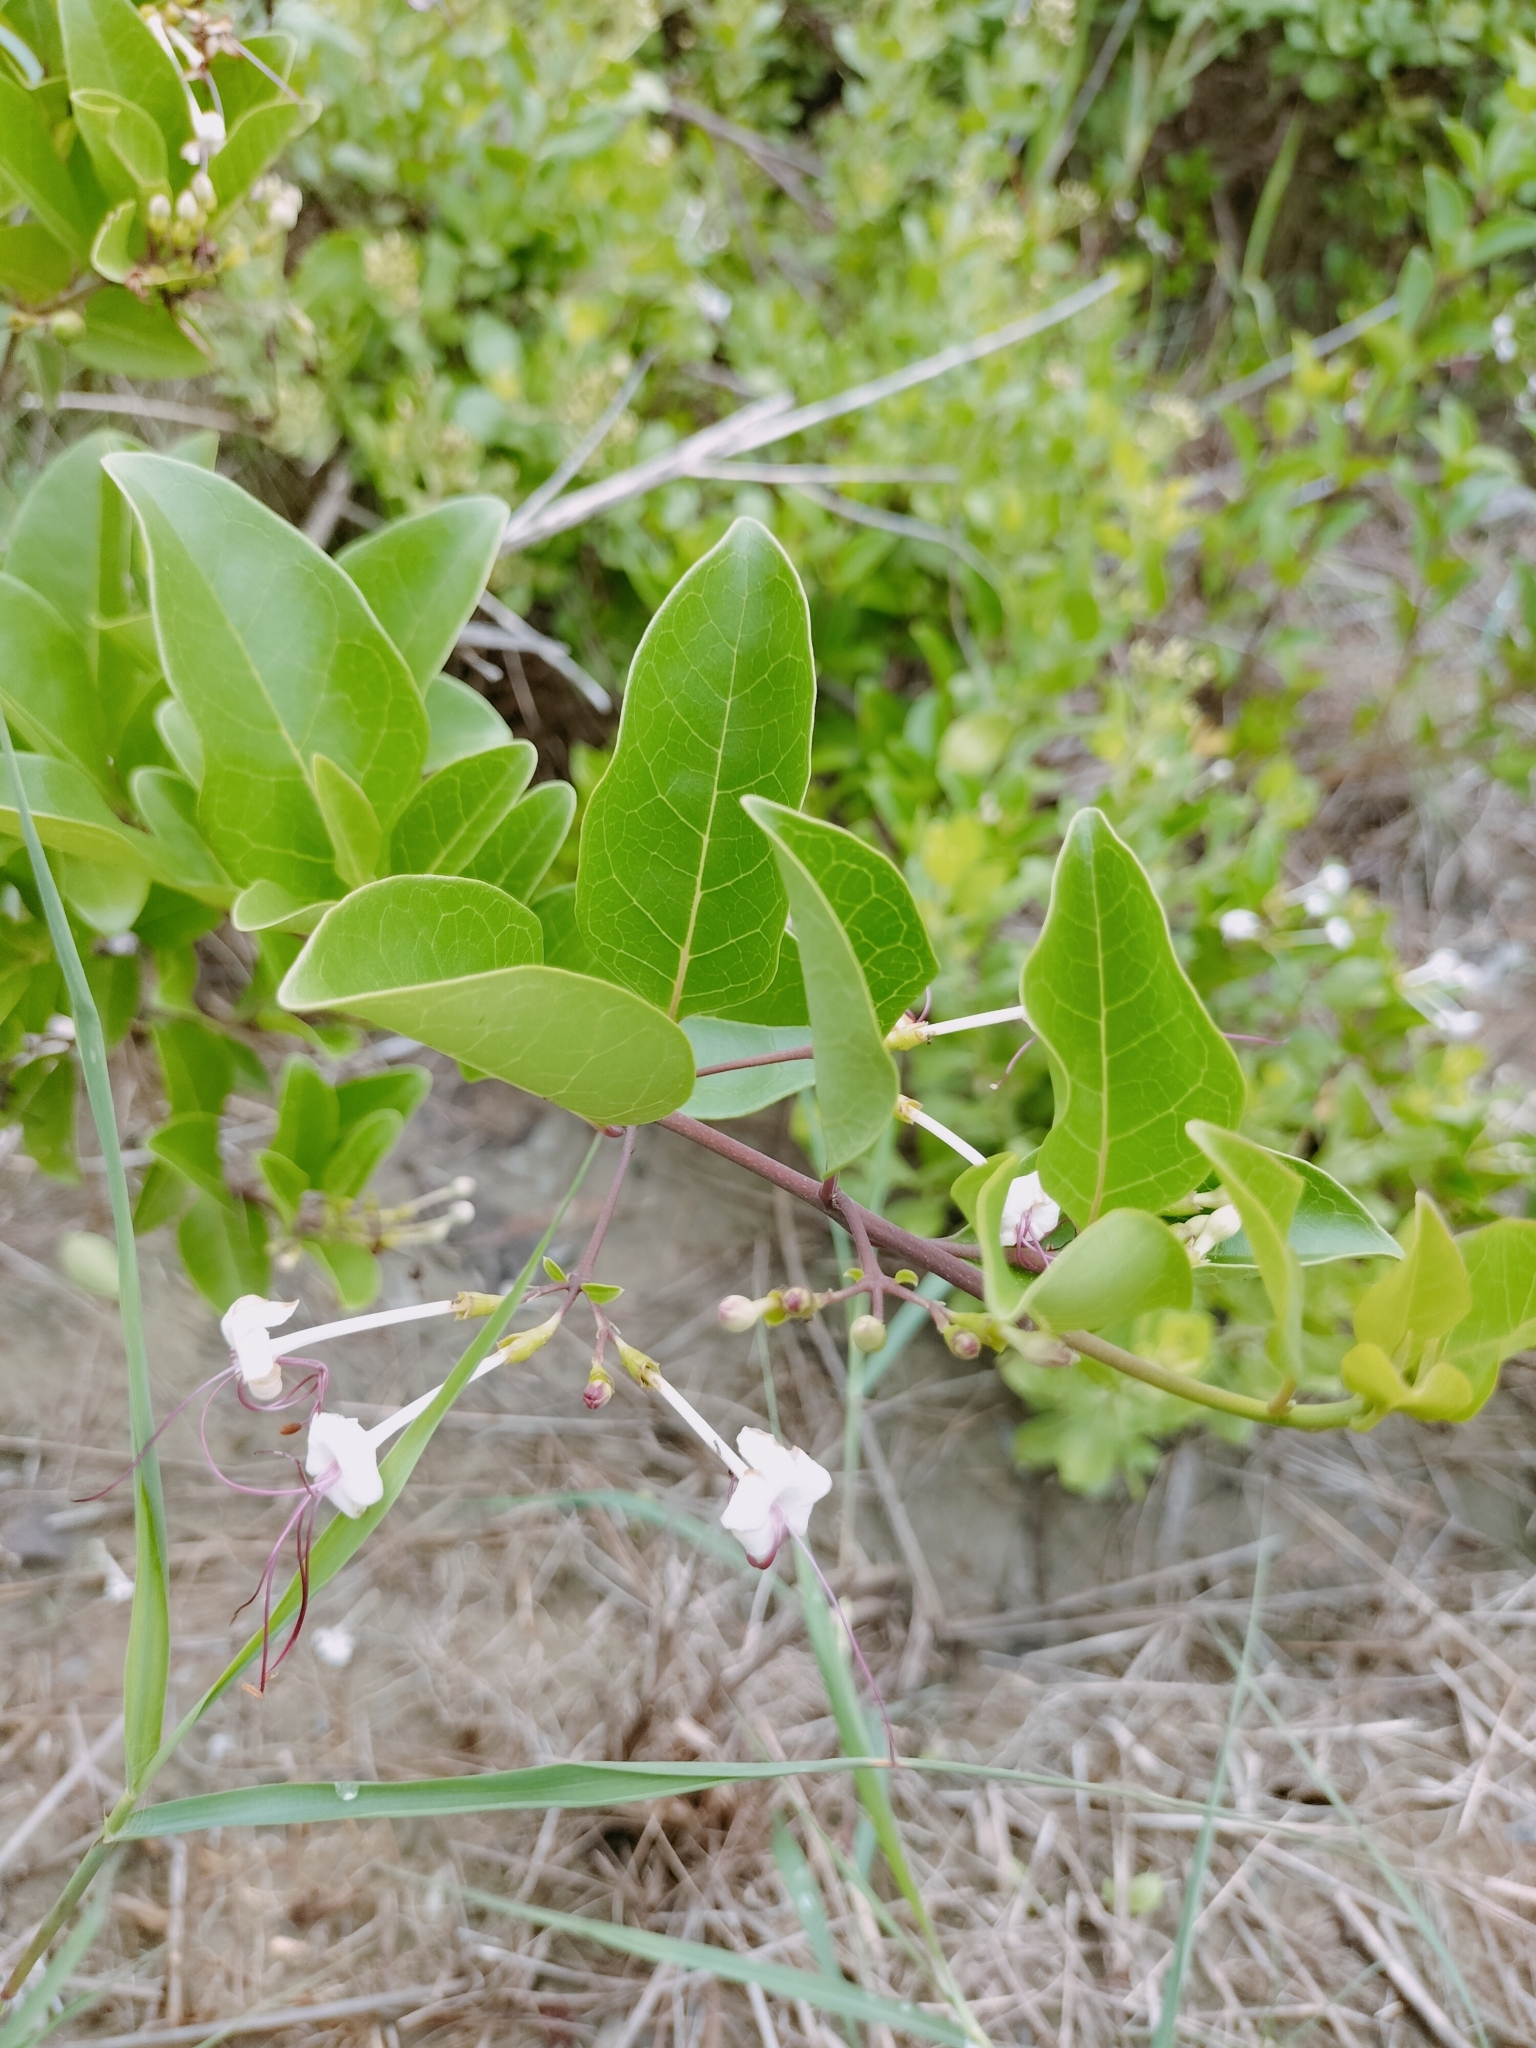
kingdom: Plantae
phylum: Tracheophyta
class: Magnoliopsida
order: Lamiales
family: Lamiaceae
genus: Volkameria
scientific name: Volkameria inermis
